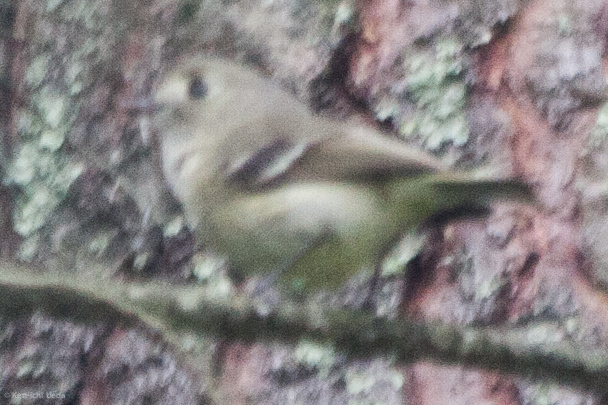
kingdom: Animalia
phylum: Chordata
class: Aves
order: Passeriformes
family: Vireonidae
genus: Vireo
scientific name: Vireo huttoni
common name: Hutton's vireo
